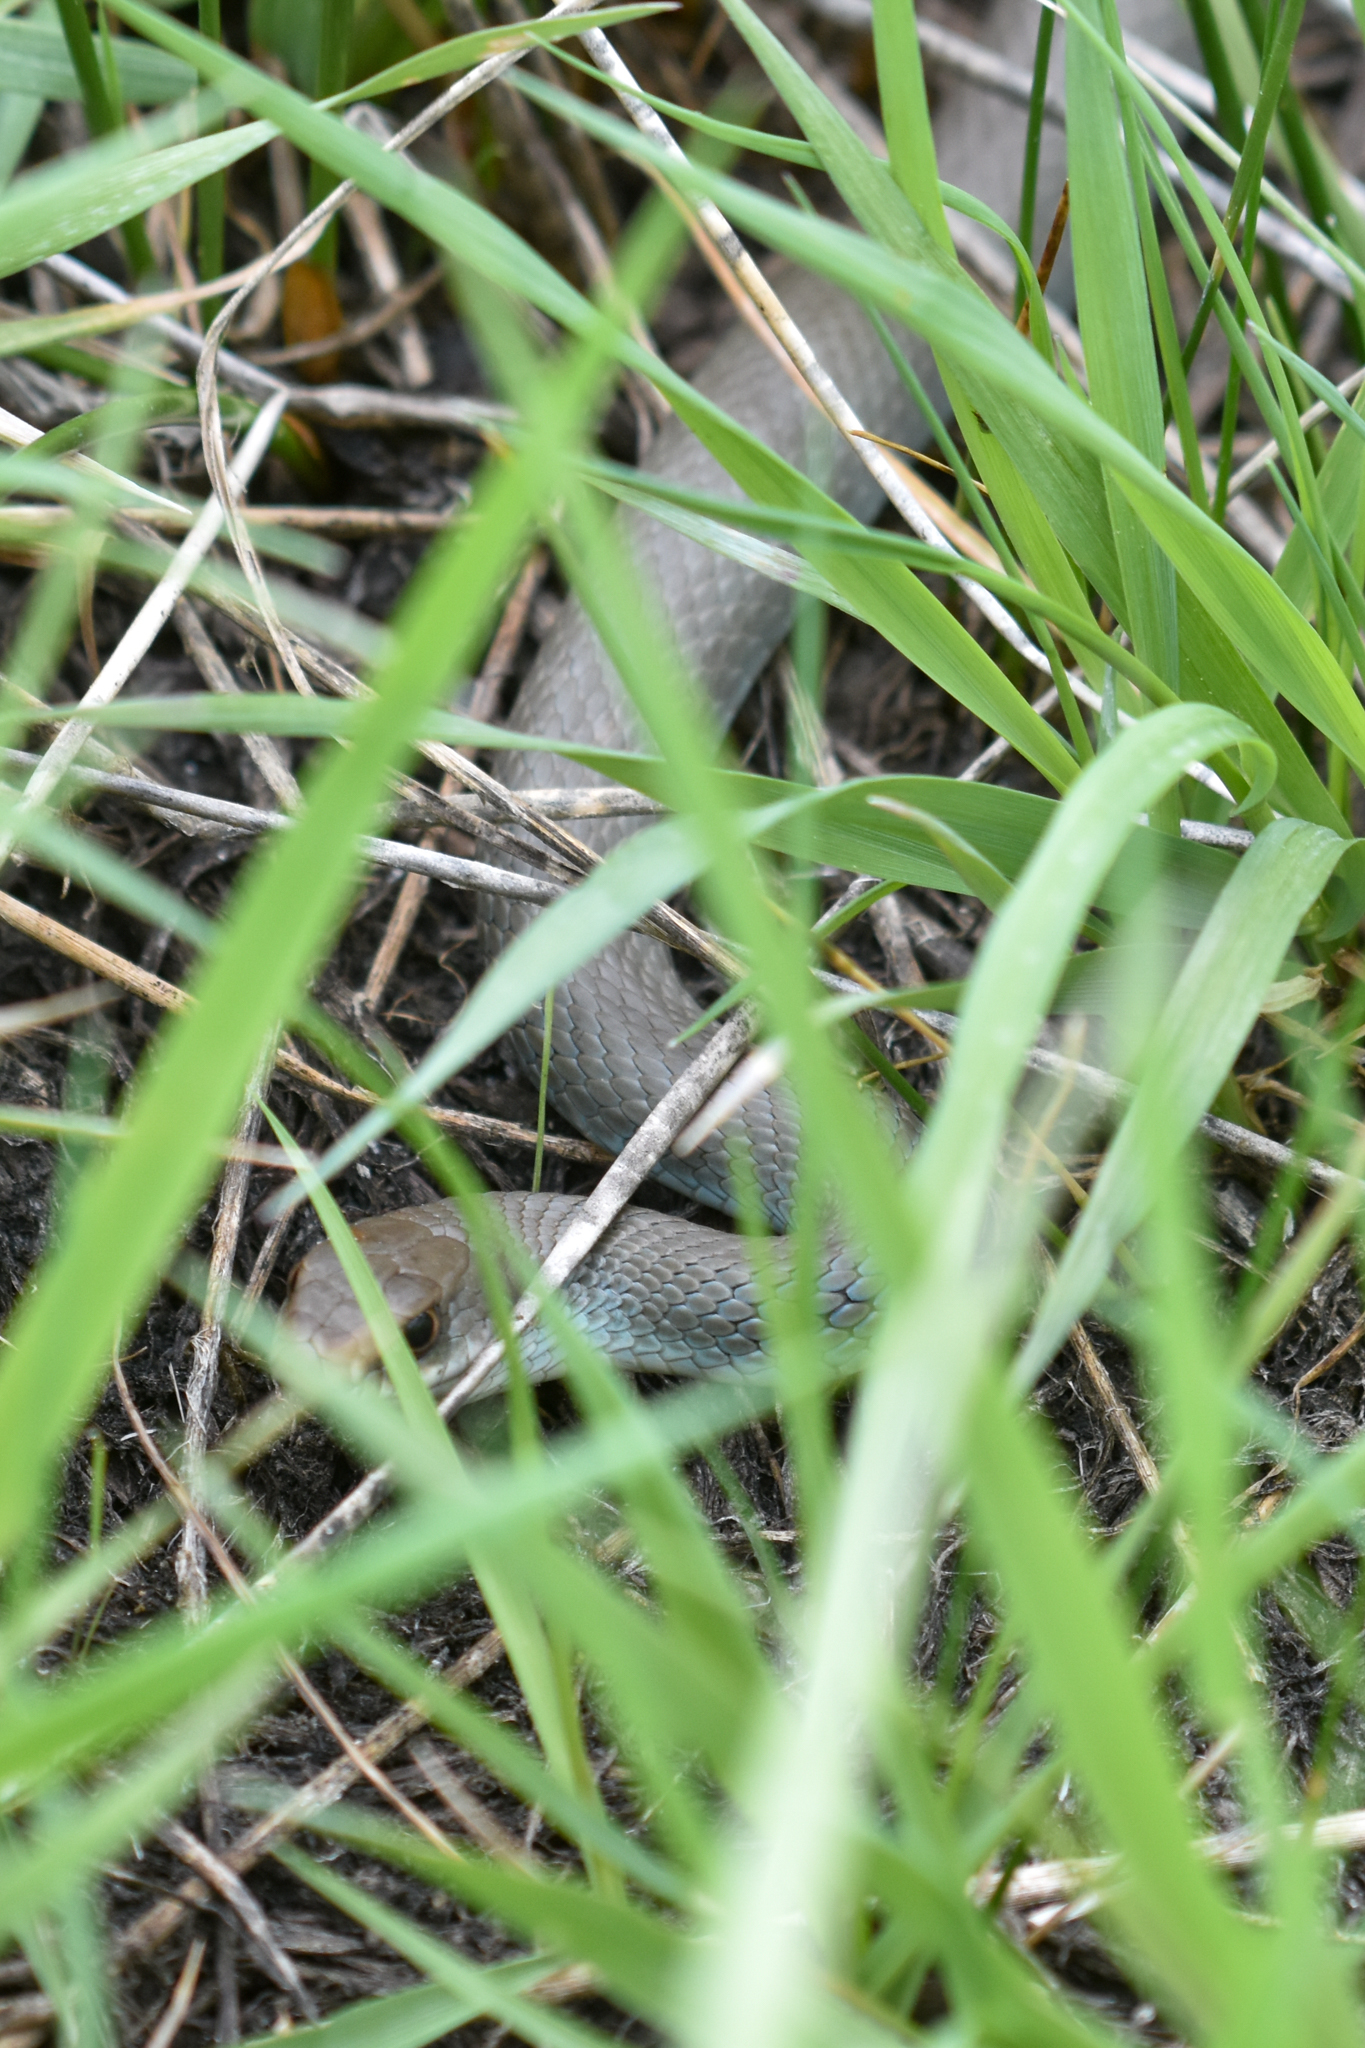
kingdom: Animalia
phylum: Chordata
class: Squamata
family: Colubridae
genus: Coluber
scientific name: Coluber constrictor
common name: Eastern racer
